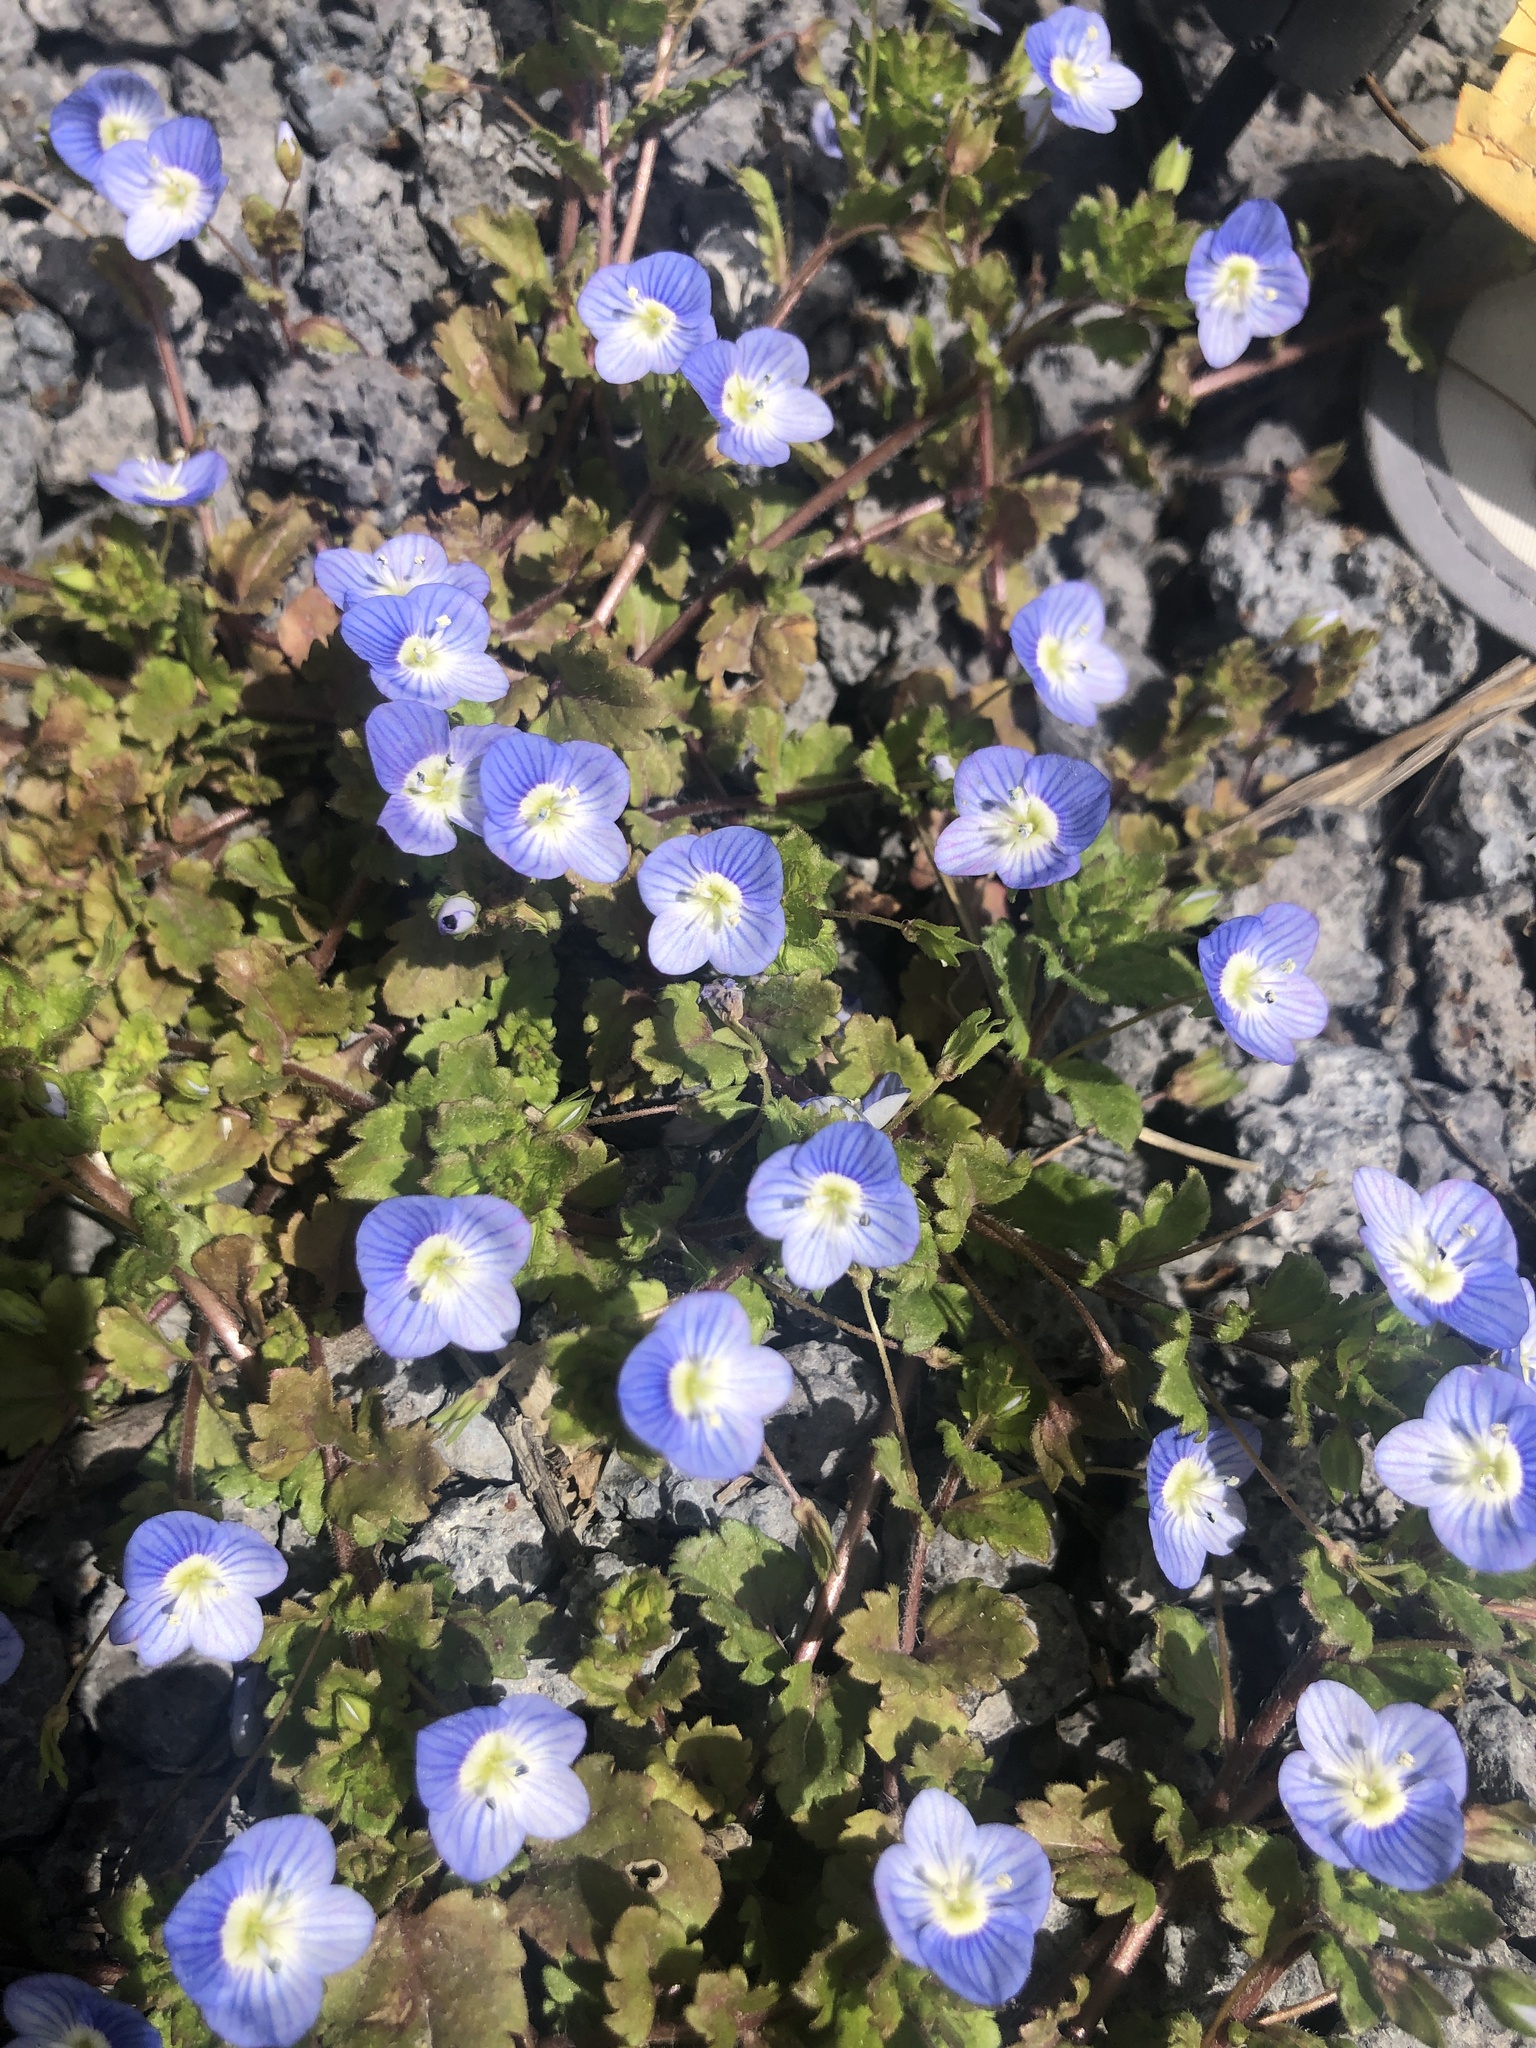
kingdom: Plantae
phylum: Tracheophyta
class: Magnoliopsida
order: Lamiales
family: Plantaginaceae
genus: Veronica
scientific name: Veronica persica
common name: Common field-speedwell
